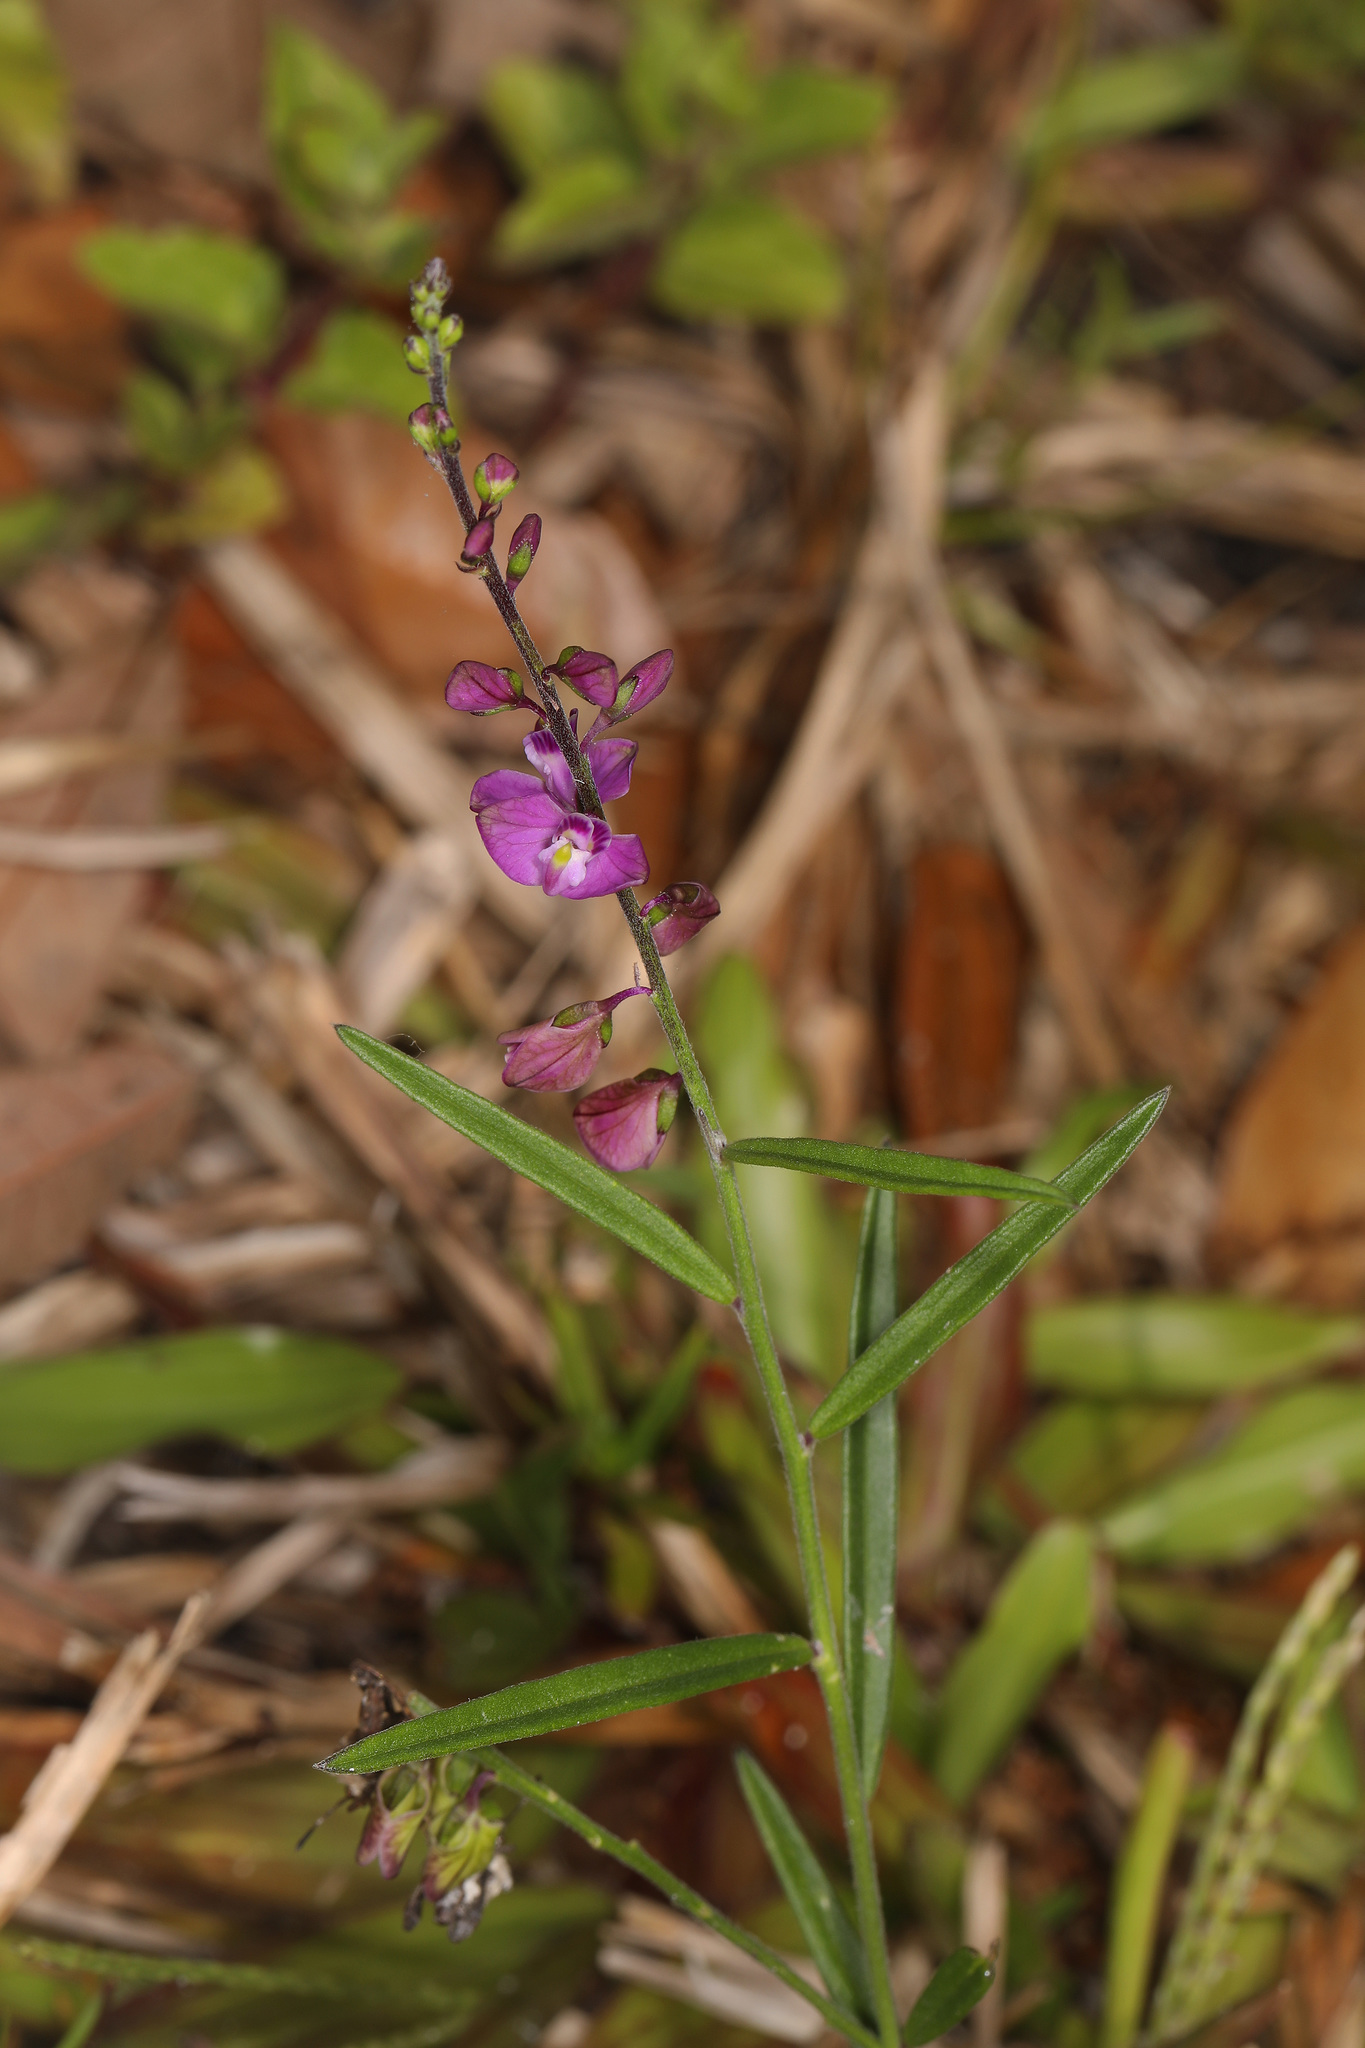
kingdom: Plantae
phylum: Tracheophyta
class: Magnoliopsida
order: Fabales
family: Polygalaceae
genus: Asemeia
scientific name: Asemeia grandiflora
